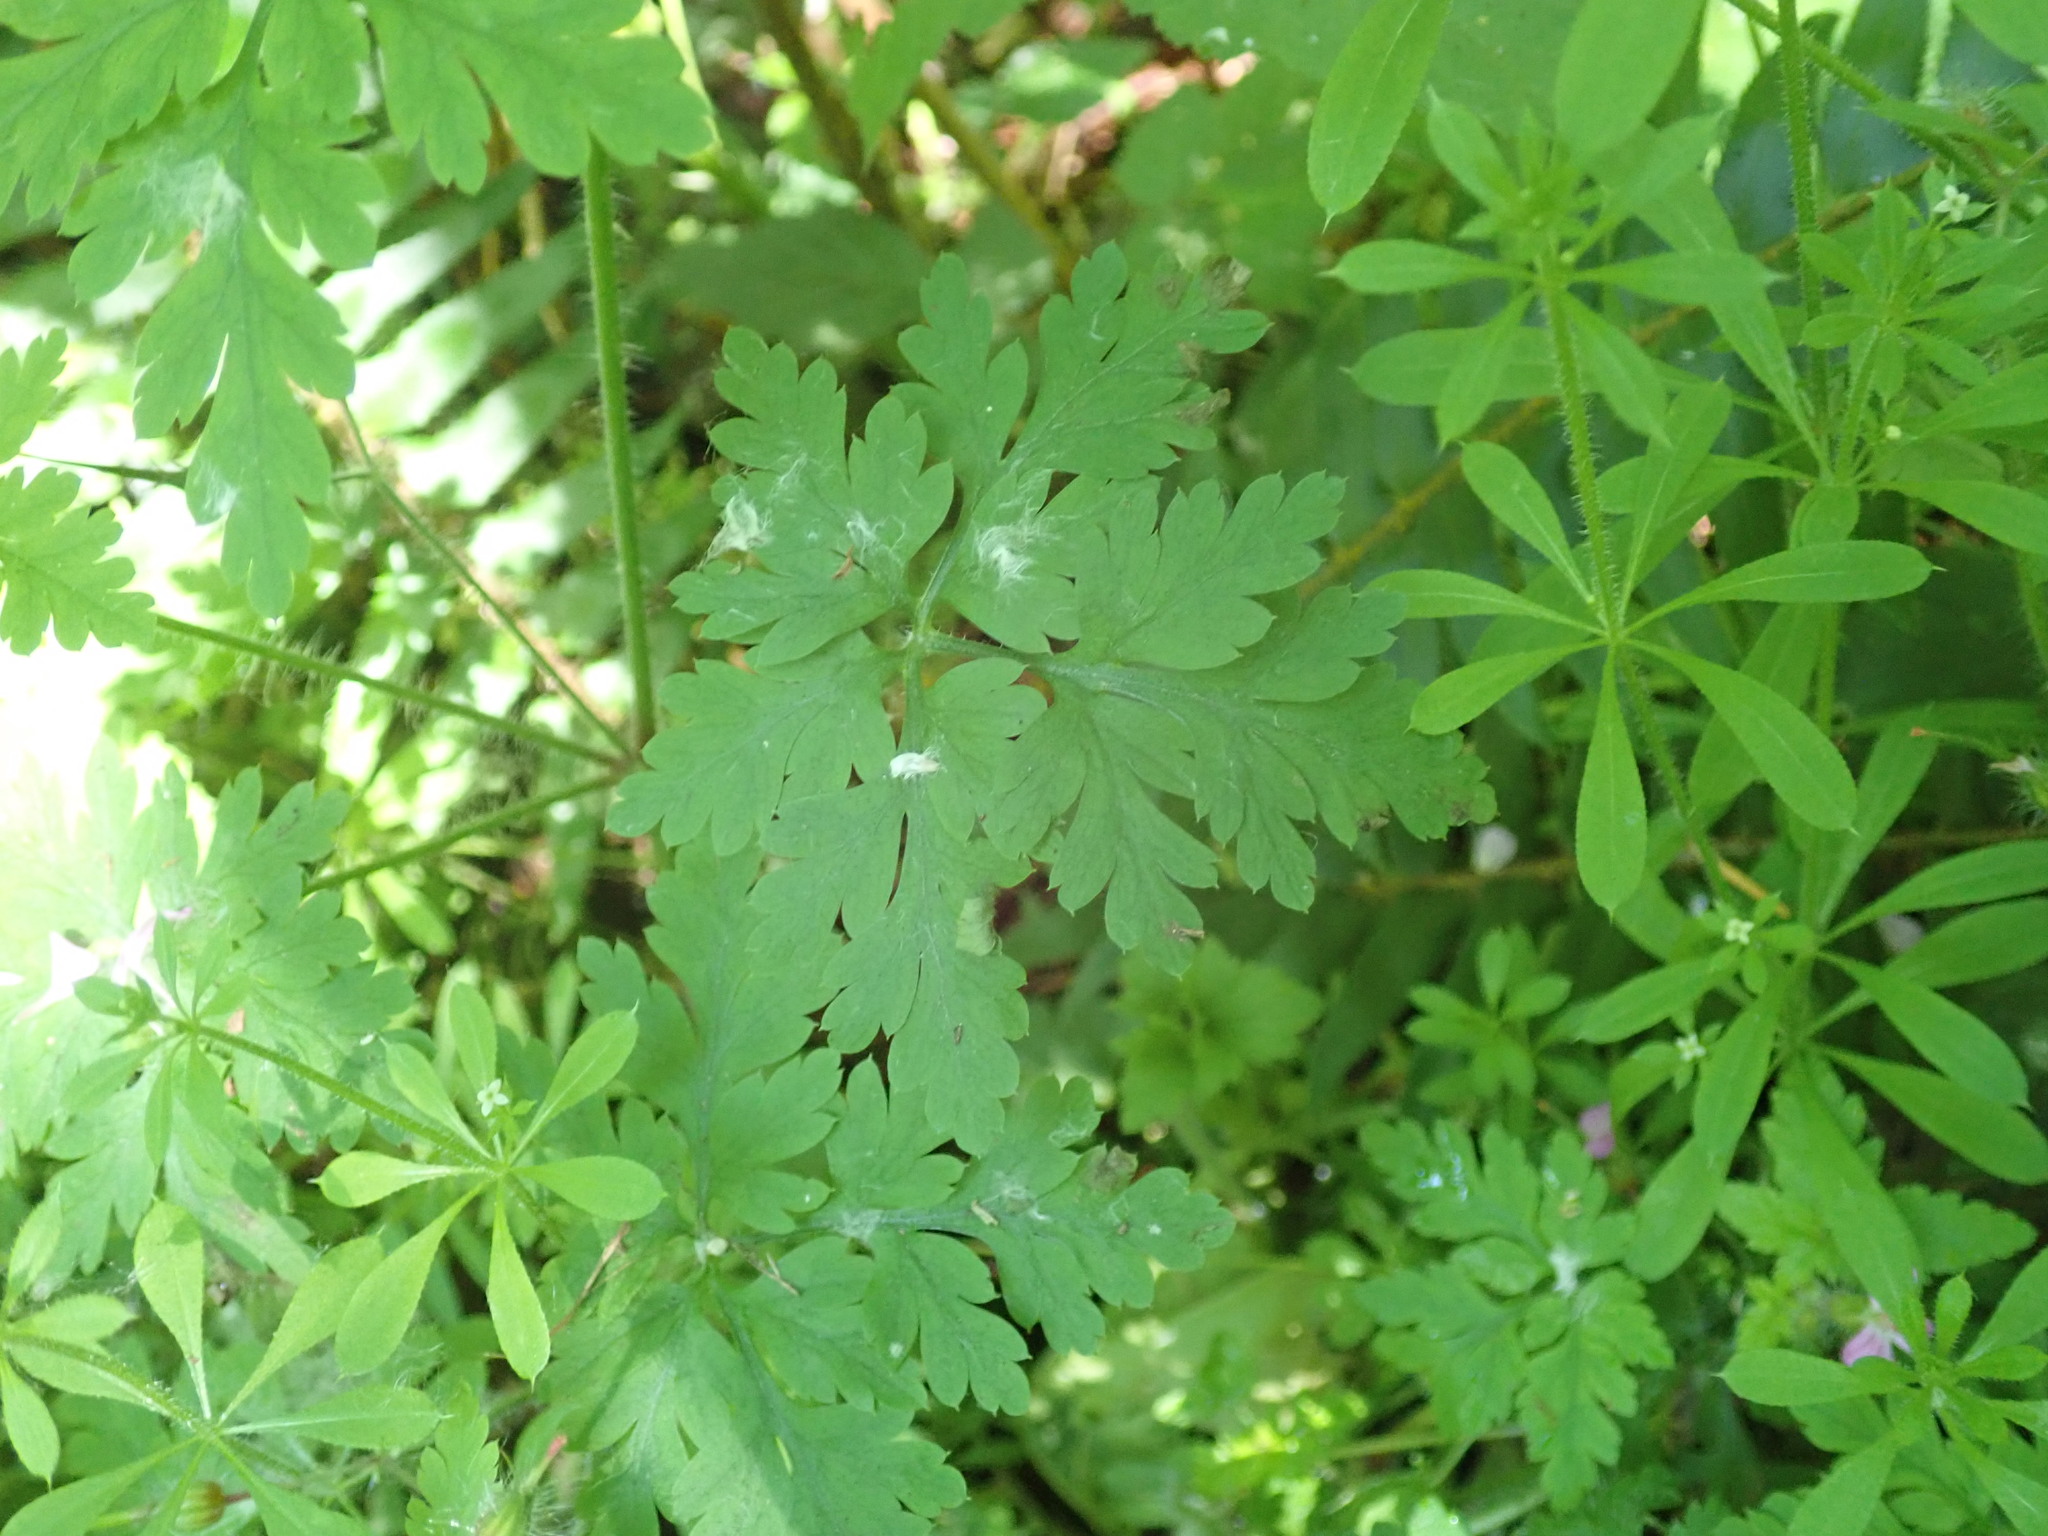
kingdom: Plantae
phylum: Tracheophyta
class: Magnoliopsida
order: Geraniales
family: Geraniaceae
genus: Geranium
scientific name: Geranium robertianum
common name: Herb-robert
